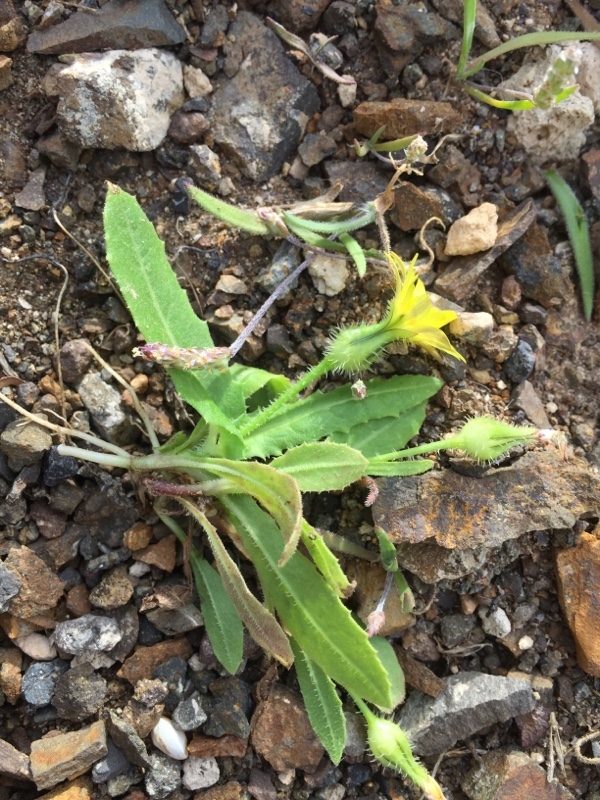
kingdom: Plantae
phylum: Tracheophyta
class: Magnoliopsida
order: Asterales
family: Asteraceae
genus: Urospermum
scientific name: Urospermum picroides
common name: False hawkbit
